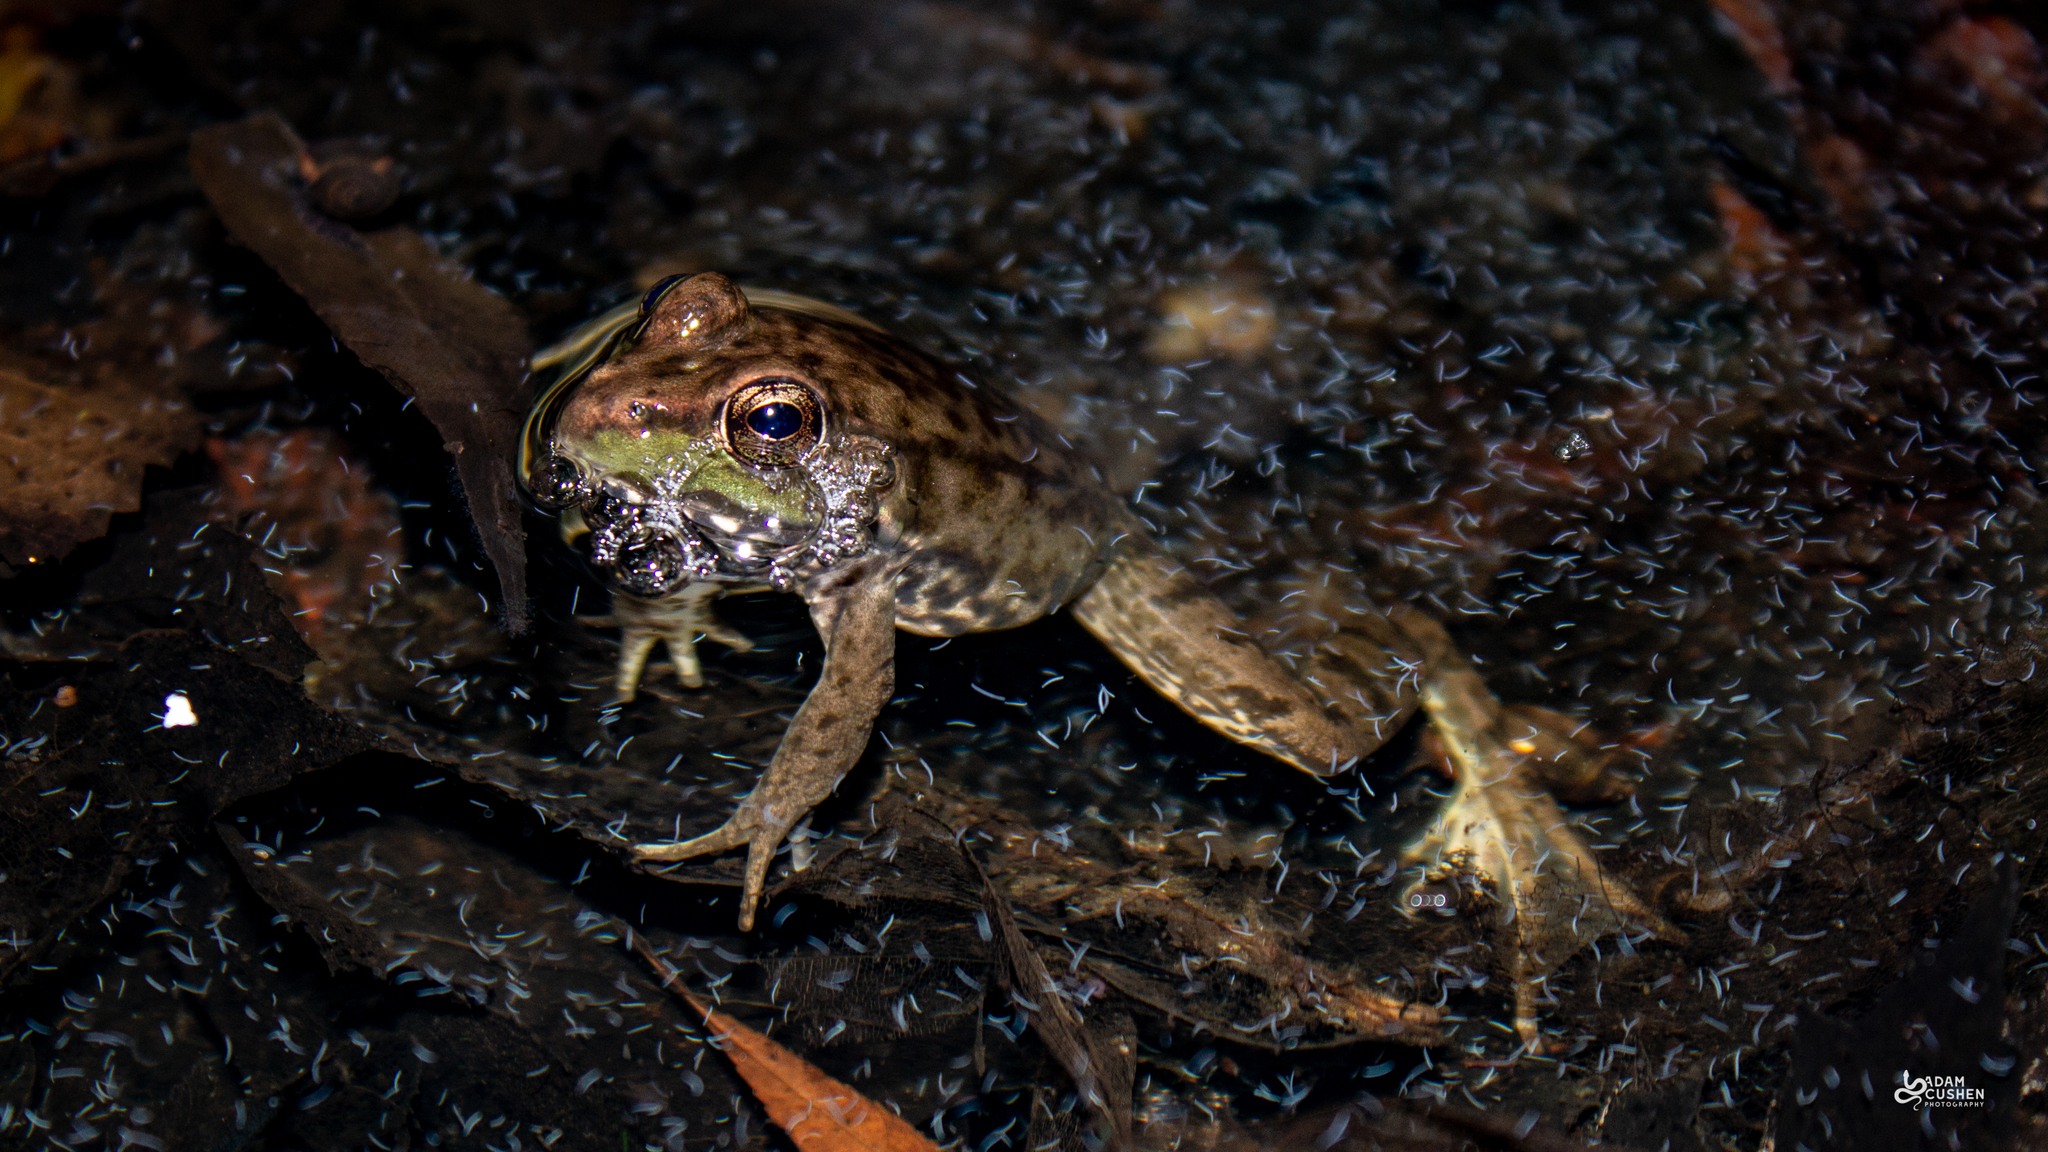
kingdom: Animalia
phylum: Chordata
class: Amphibia
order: Anura
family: Ranidae
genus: Lithobates
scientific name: Lithobates clamitans
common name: Green frog
